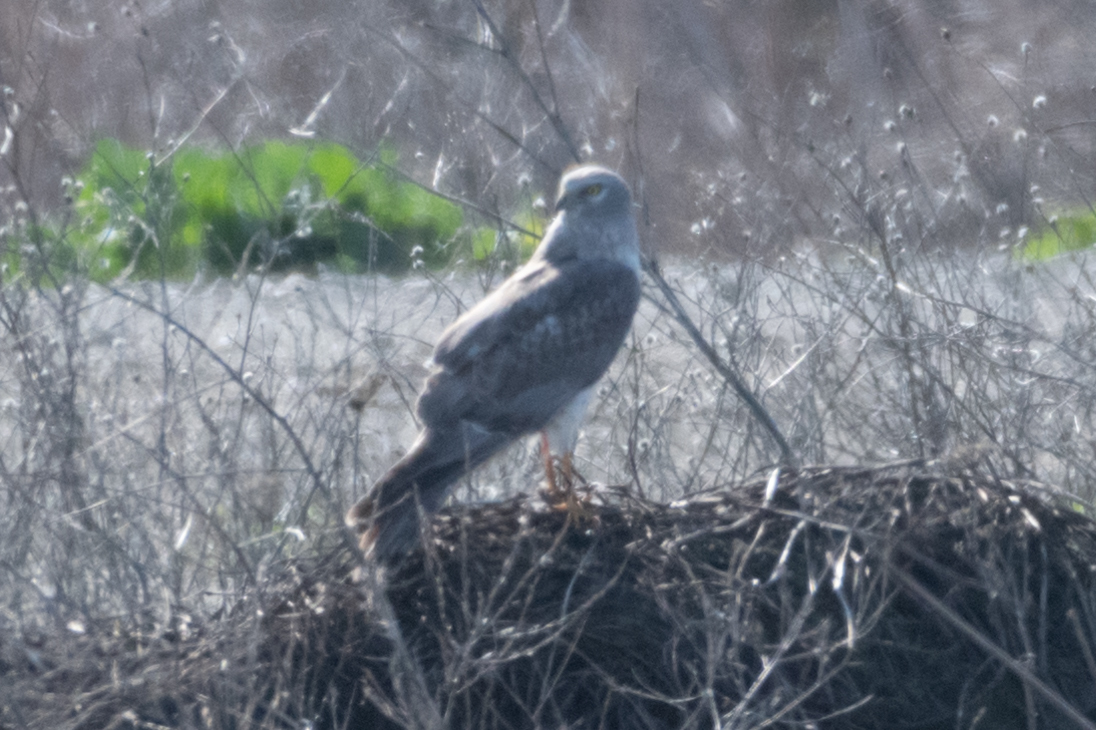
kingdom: Animalia
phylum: Chordata
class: Aves
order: Accipitriformes
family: Accipitridae
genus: Circus
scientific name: Circus cyaneus
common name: Hen harrier
